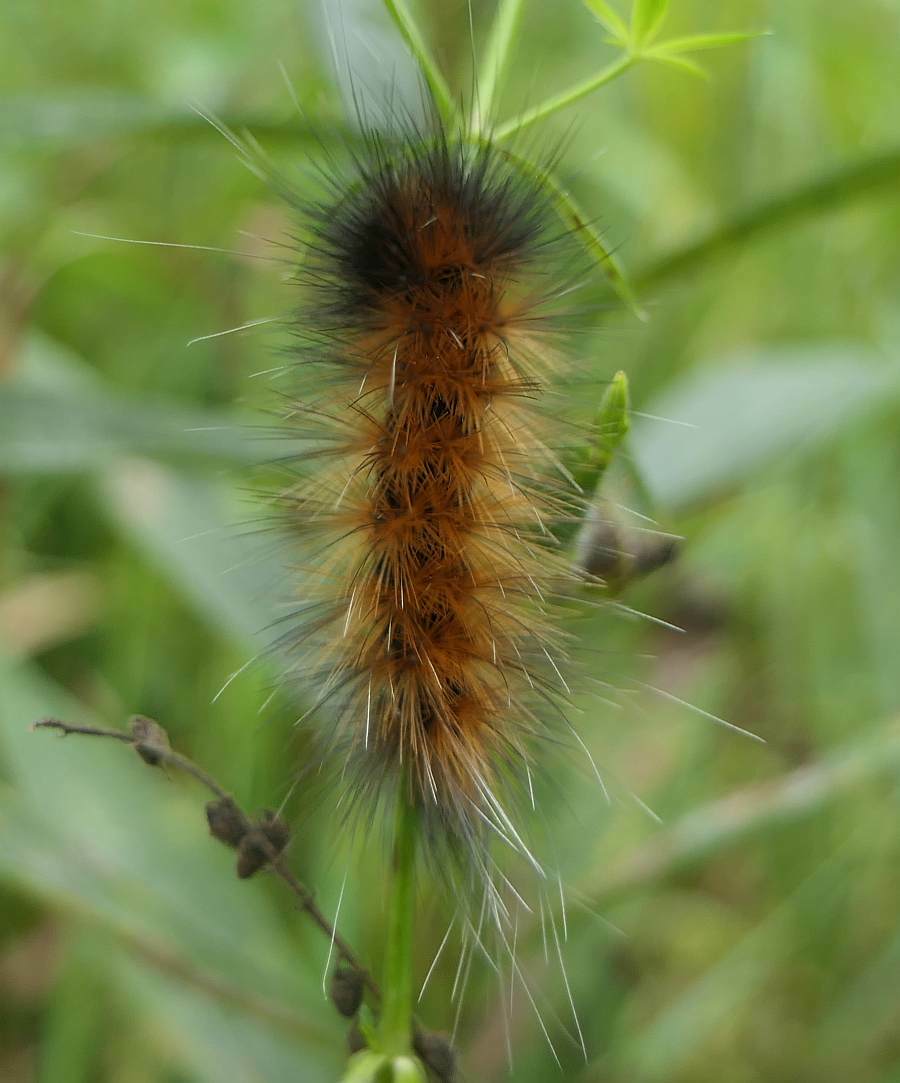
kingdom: Animalia
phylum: Arthropoda
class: Insecta
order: Lepidoptera
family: Erebidae
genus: Spilosoma
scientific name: Spilosoma virginica
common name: Virginia tiger moth
